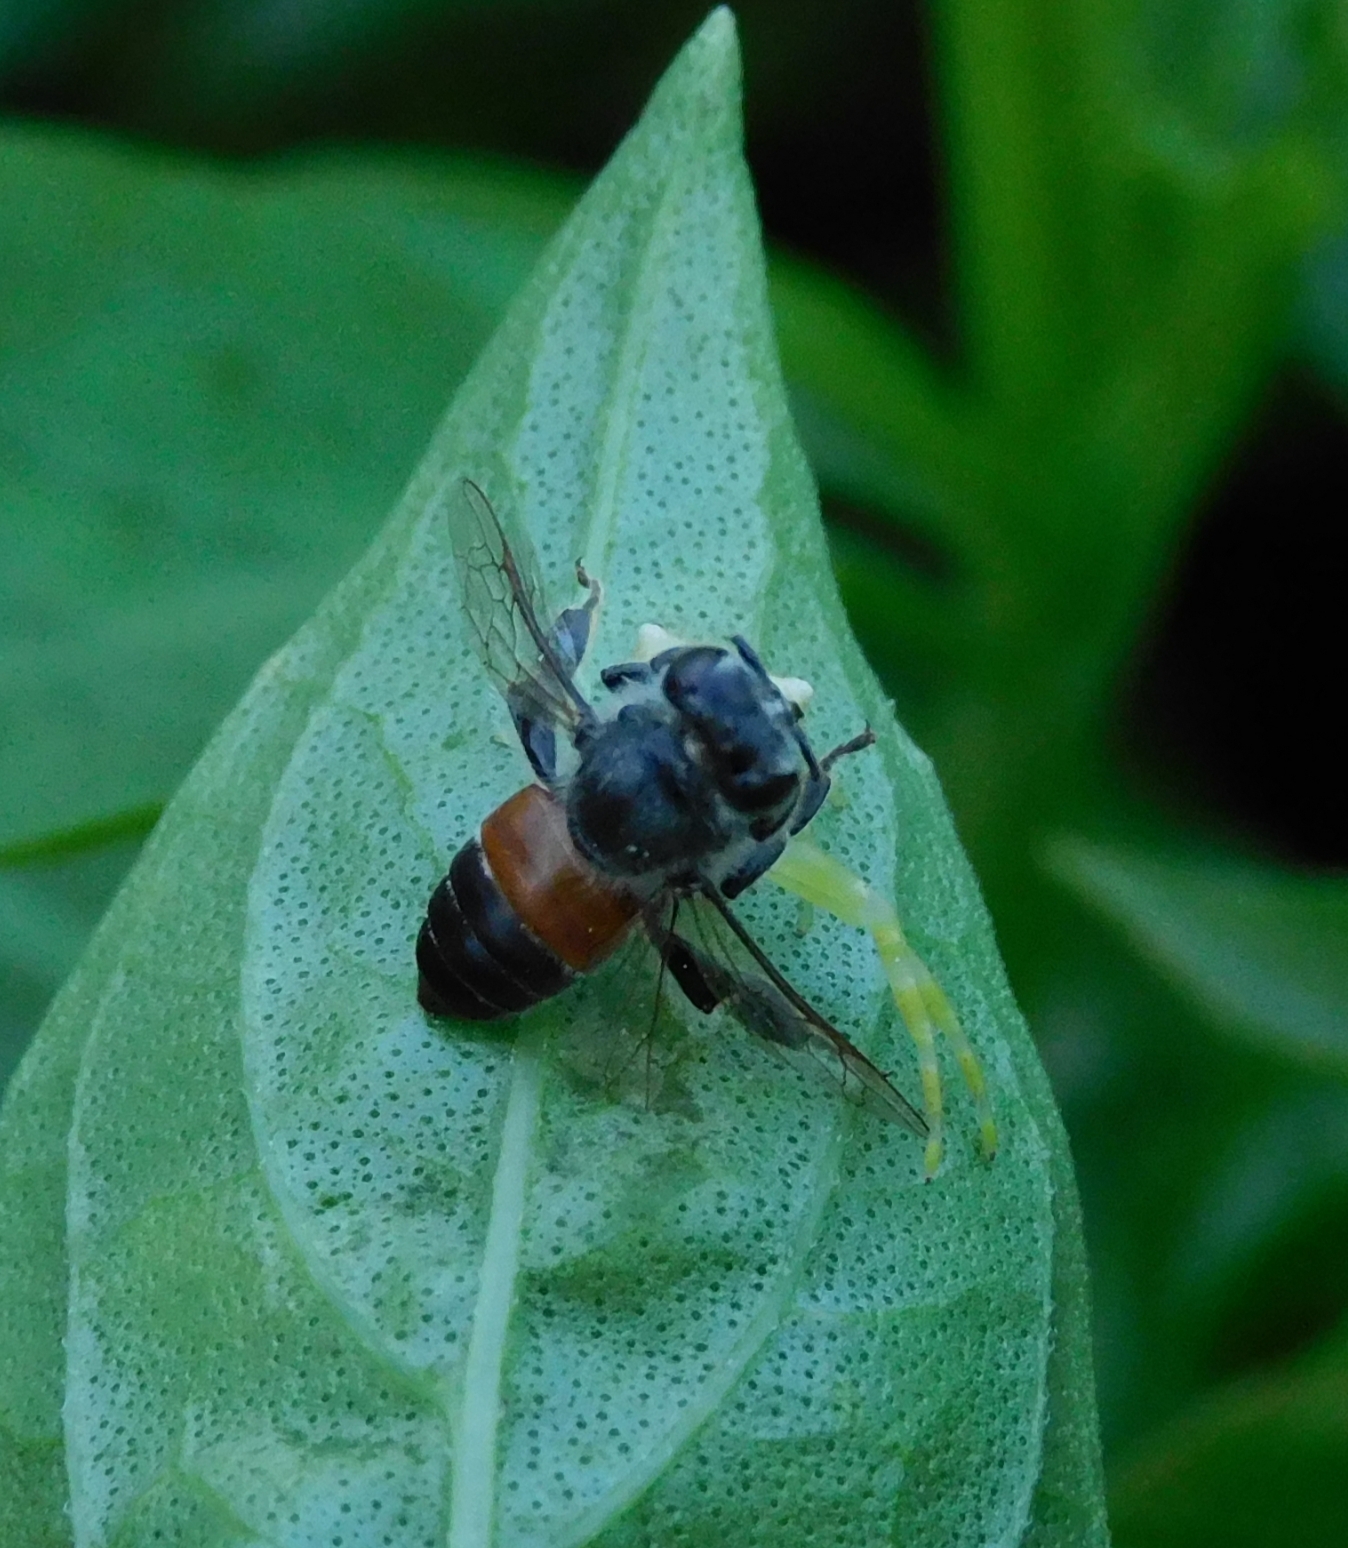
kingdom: Animalia
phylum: Arthropoda
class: Insecta
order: Hymenoptera
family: Apidae
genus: Apis
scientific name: Apis florea
